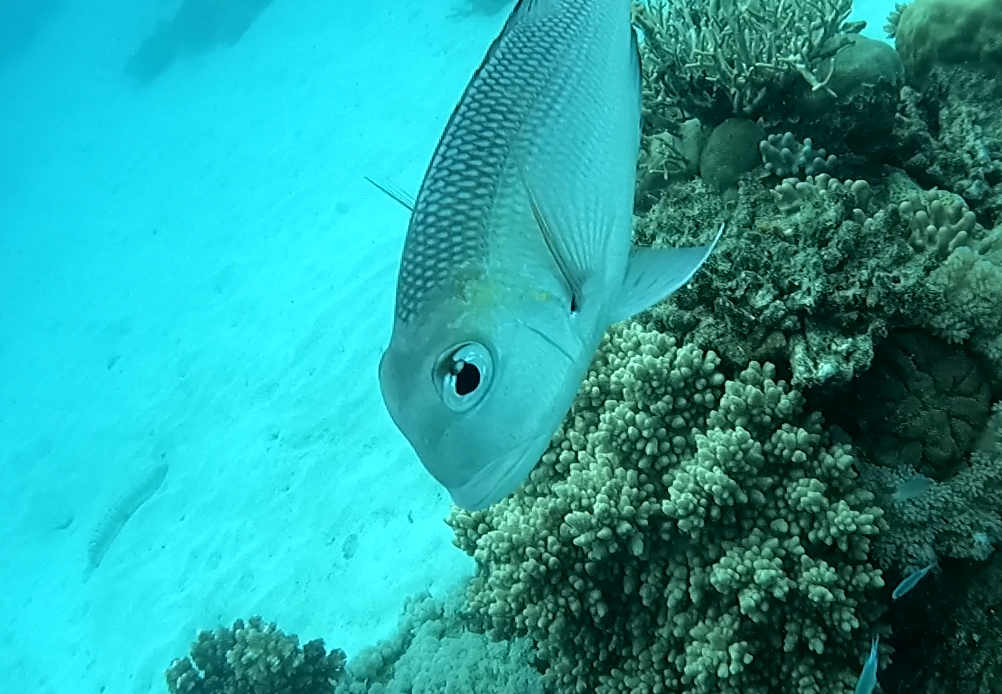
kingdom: Animalia
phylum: Chordata
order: Perciformes
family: Lethrinidae
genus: Monotaxis
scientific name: Monotaxis grandoculis
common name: Bigeye emperor
